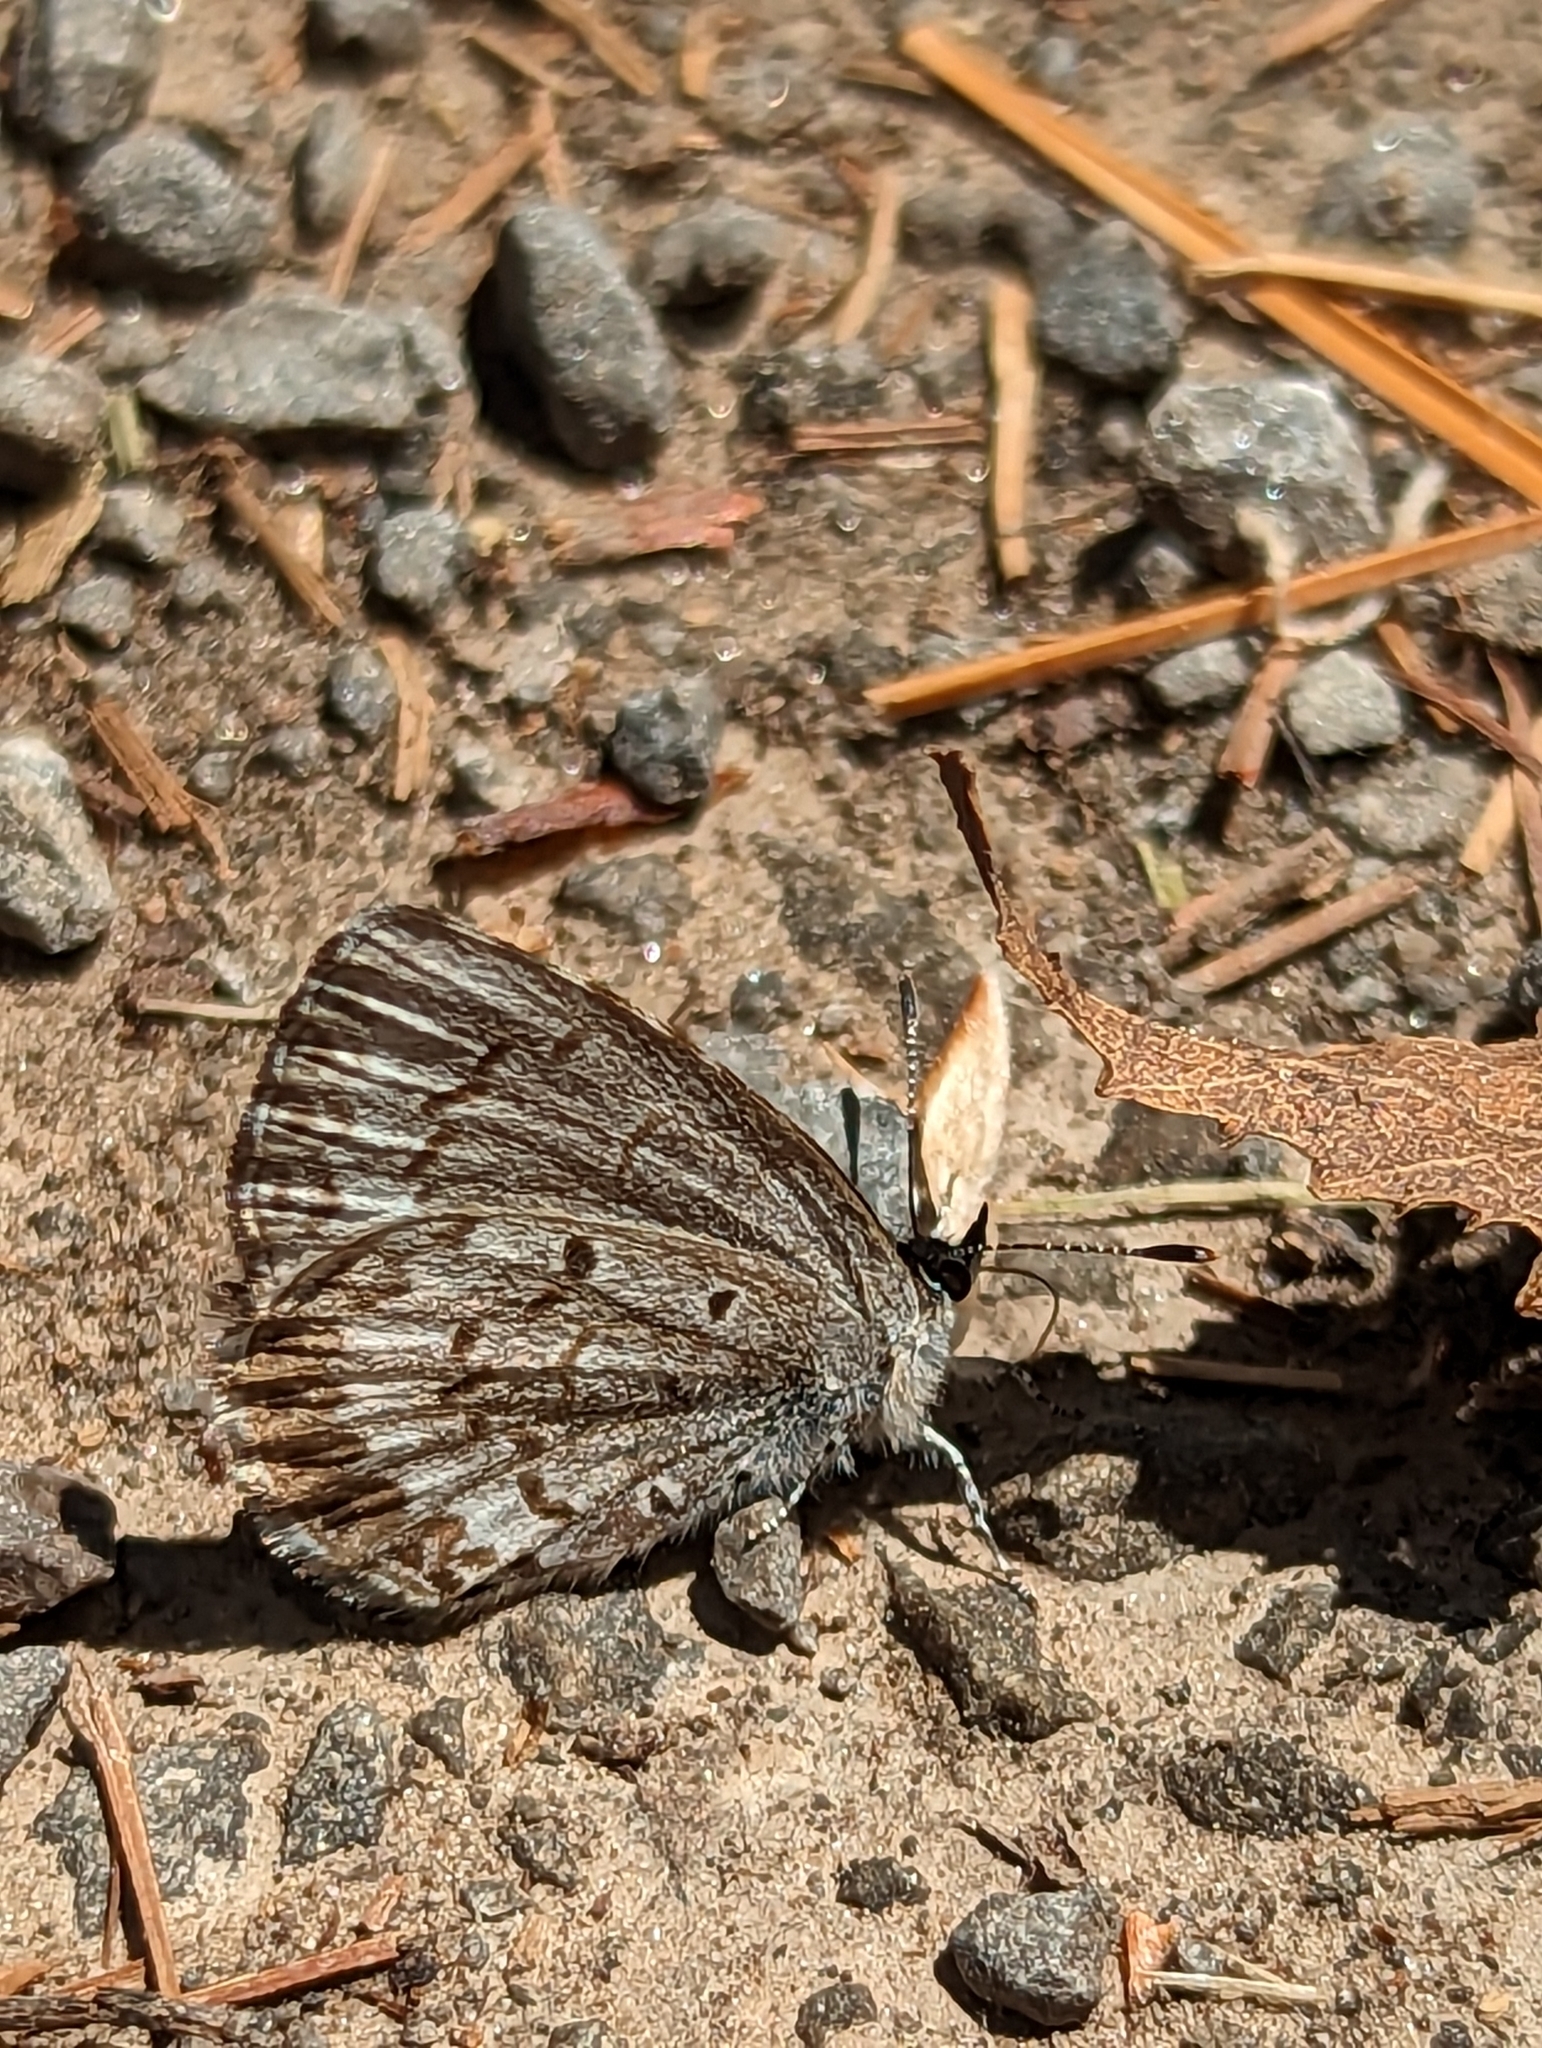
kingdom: Animalia
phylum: Arthropoda
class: Insecta
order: Lepidoptera
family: Lycaenidae
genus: Celastrina
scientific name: Celastrina lucia
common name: Lucia azure
